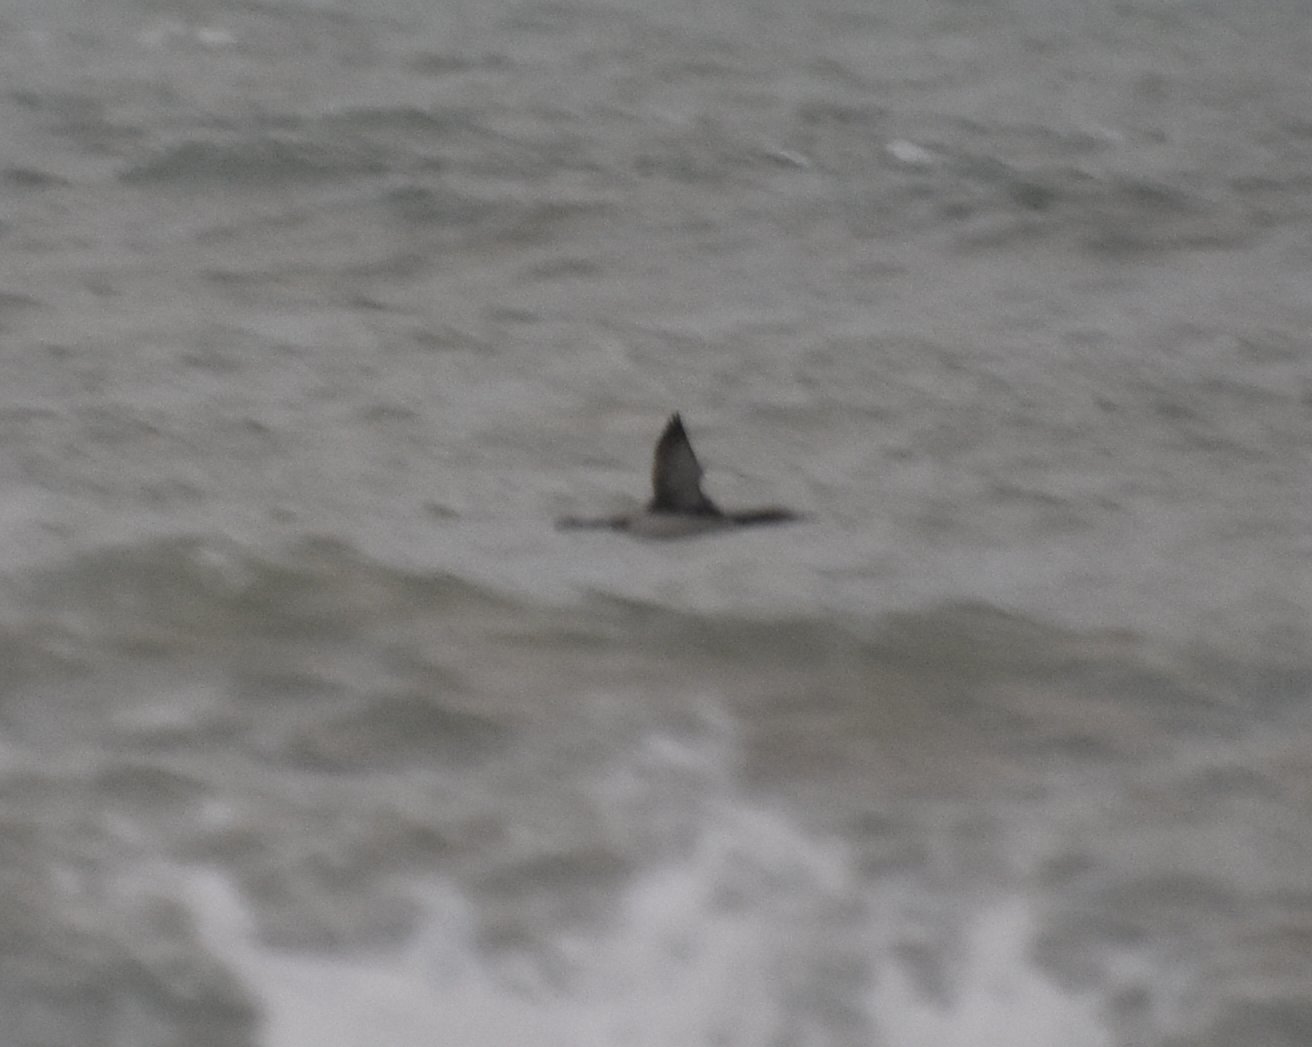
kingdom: Animalia
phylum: Chordata
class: Aves
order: Gaviiformes
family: Gaviidae
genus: Gavia
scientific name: Gavia immer
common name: Common loon
